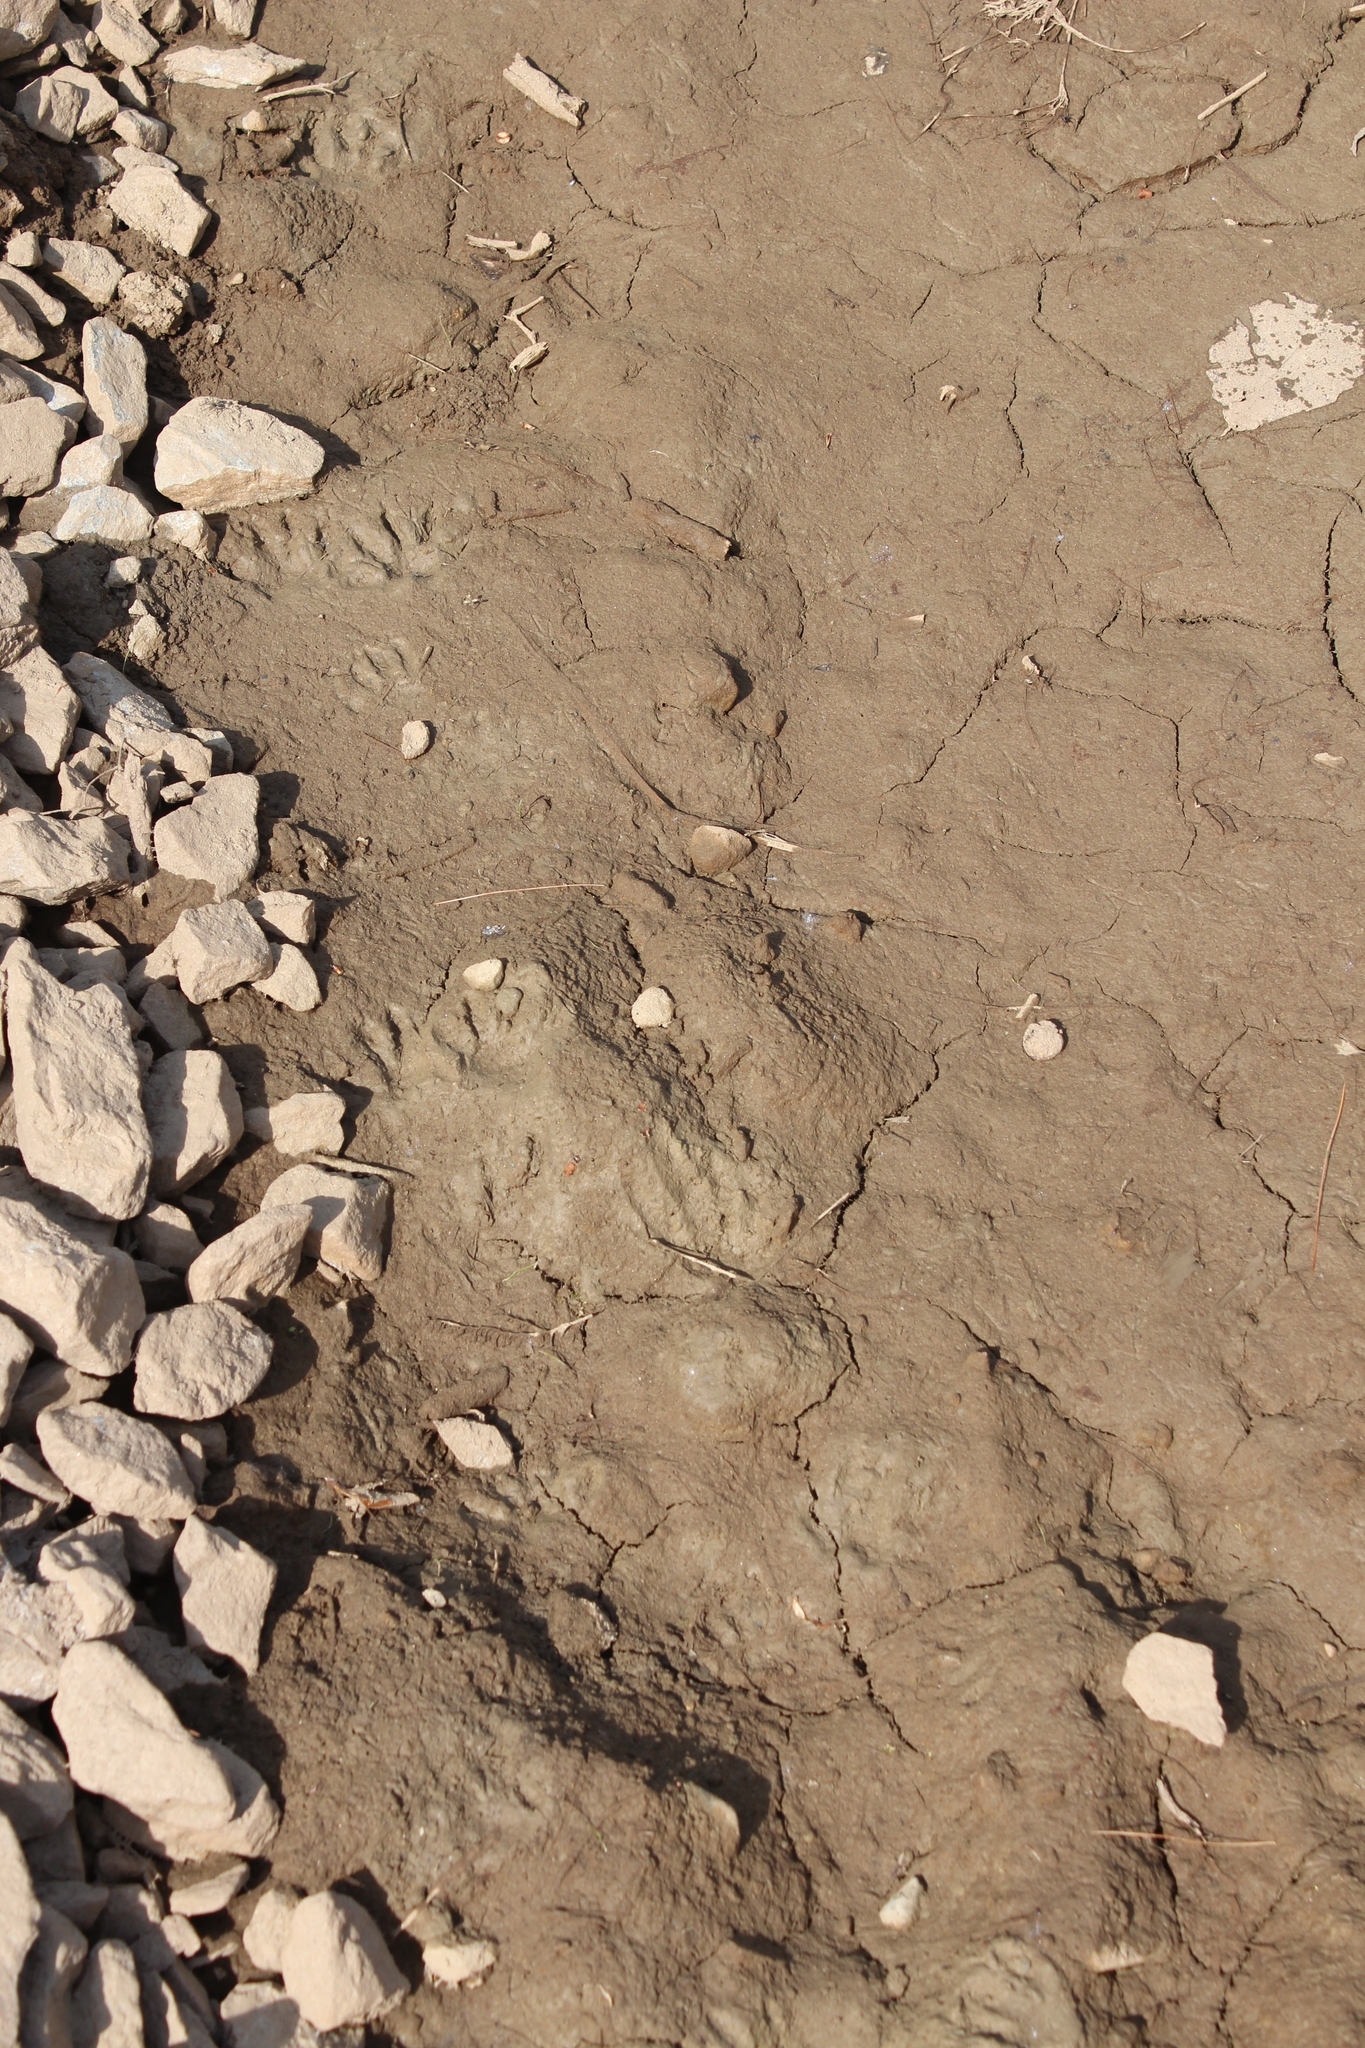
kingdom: Animalia
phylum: Chordata
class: Mammalia
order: Carnivora
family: Procyonidae
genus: Procyon
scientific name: Procyon lotor
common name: Raccoon
